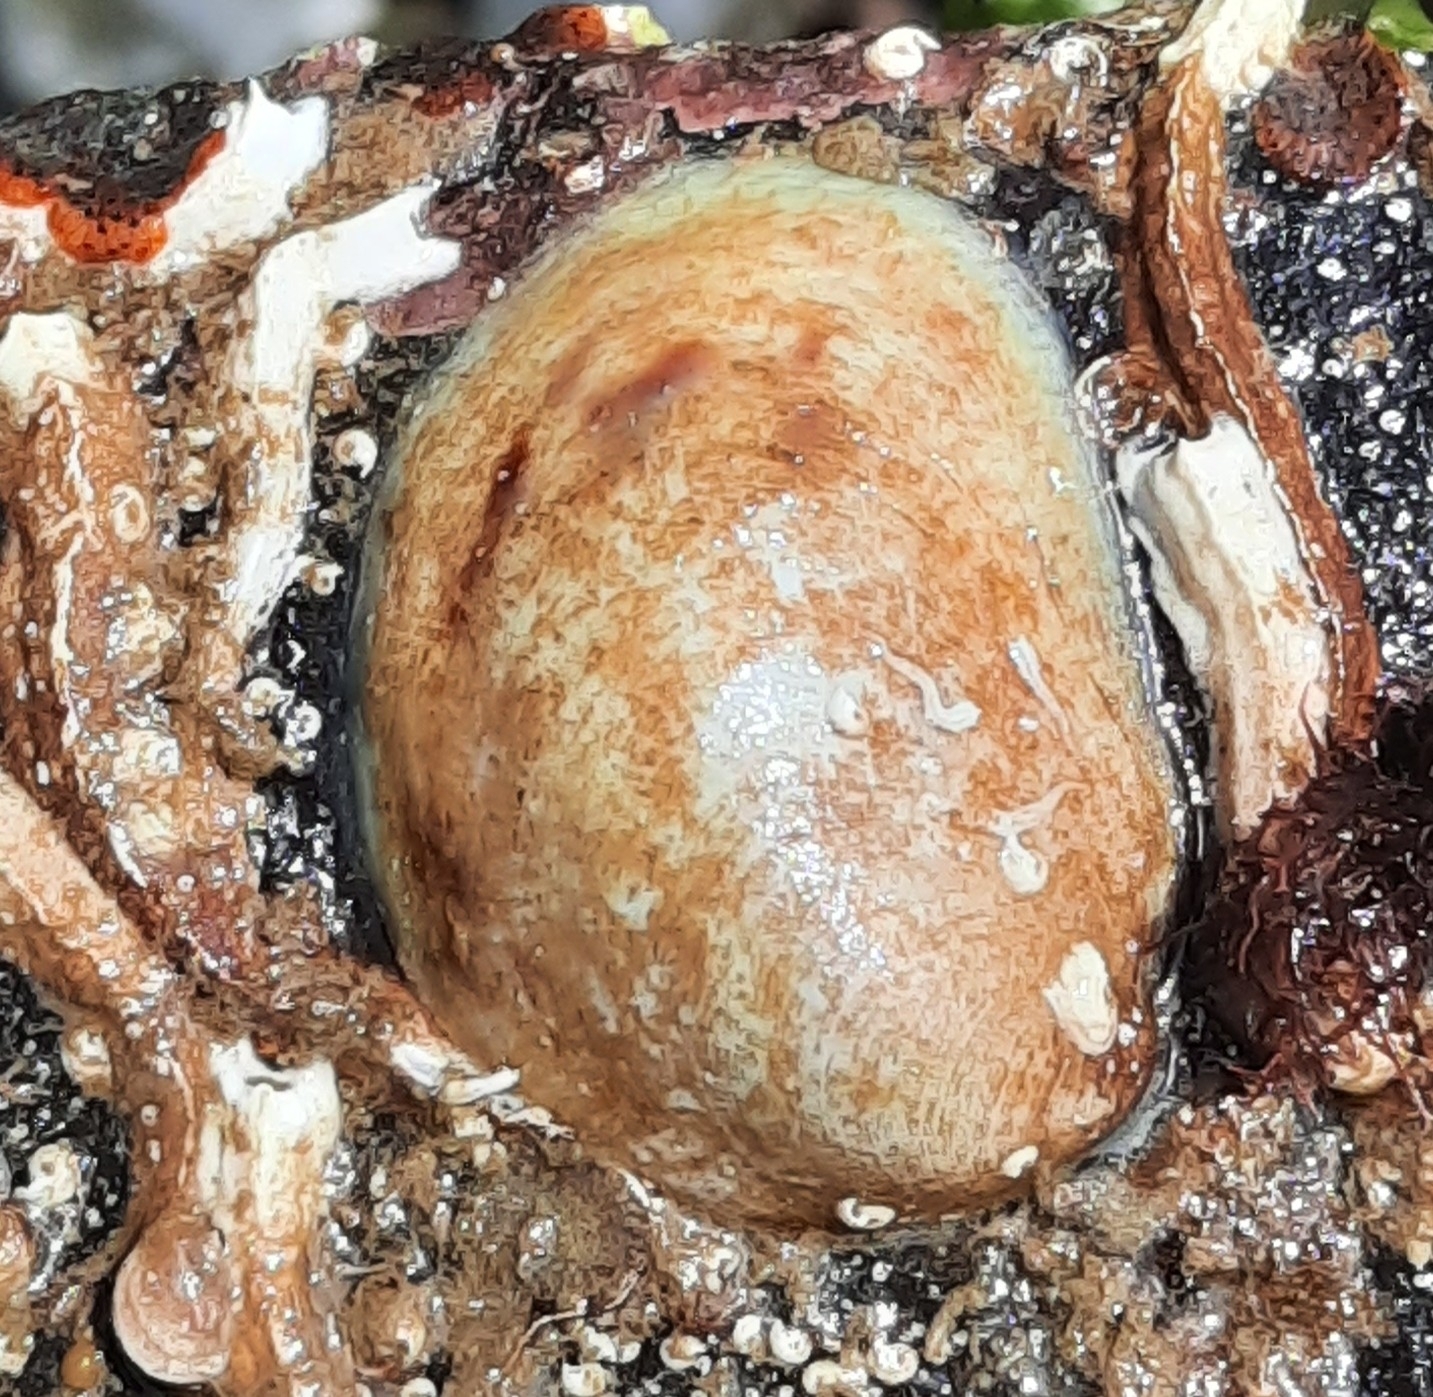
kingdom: Animalia
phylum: Mollusca
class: Gastropoda
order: Littorinimorpha
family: Calyptraeidae
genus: Crepidula
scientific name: Crepidula fornicata
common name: Slipper limpet
